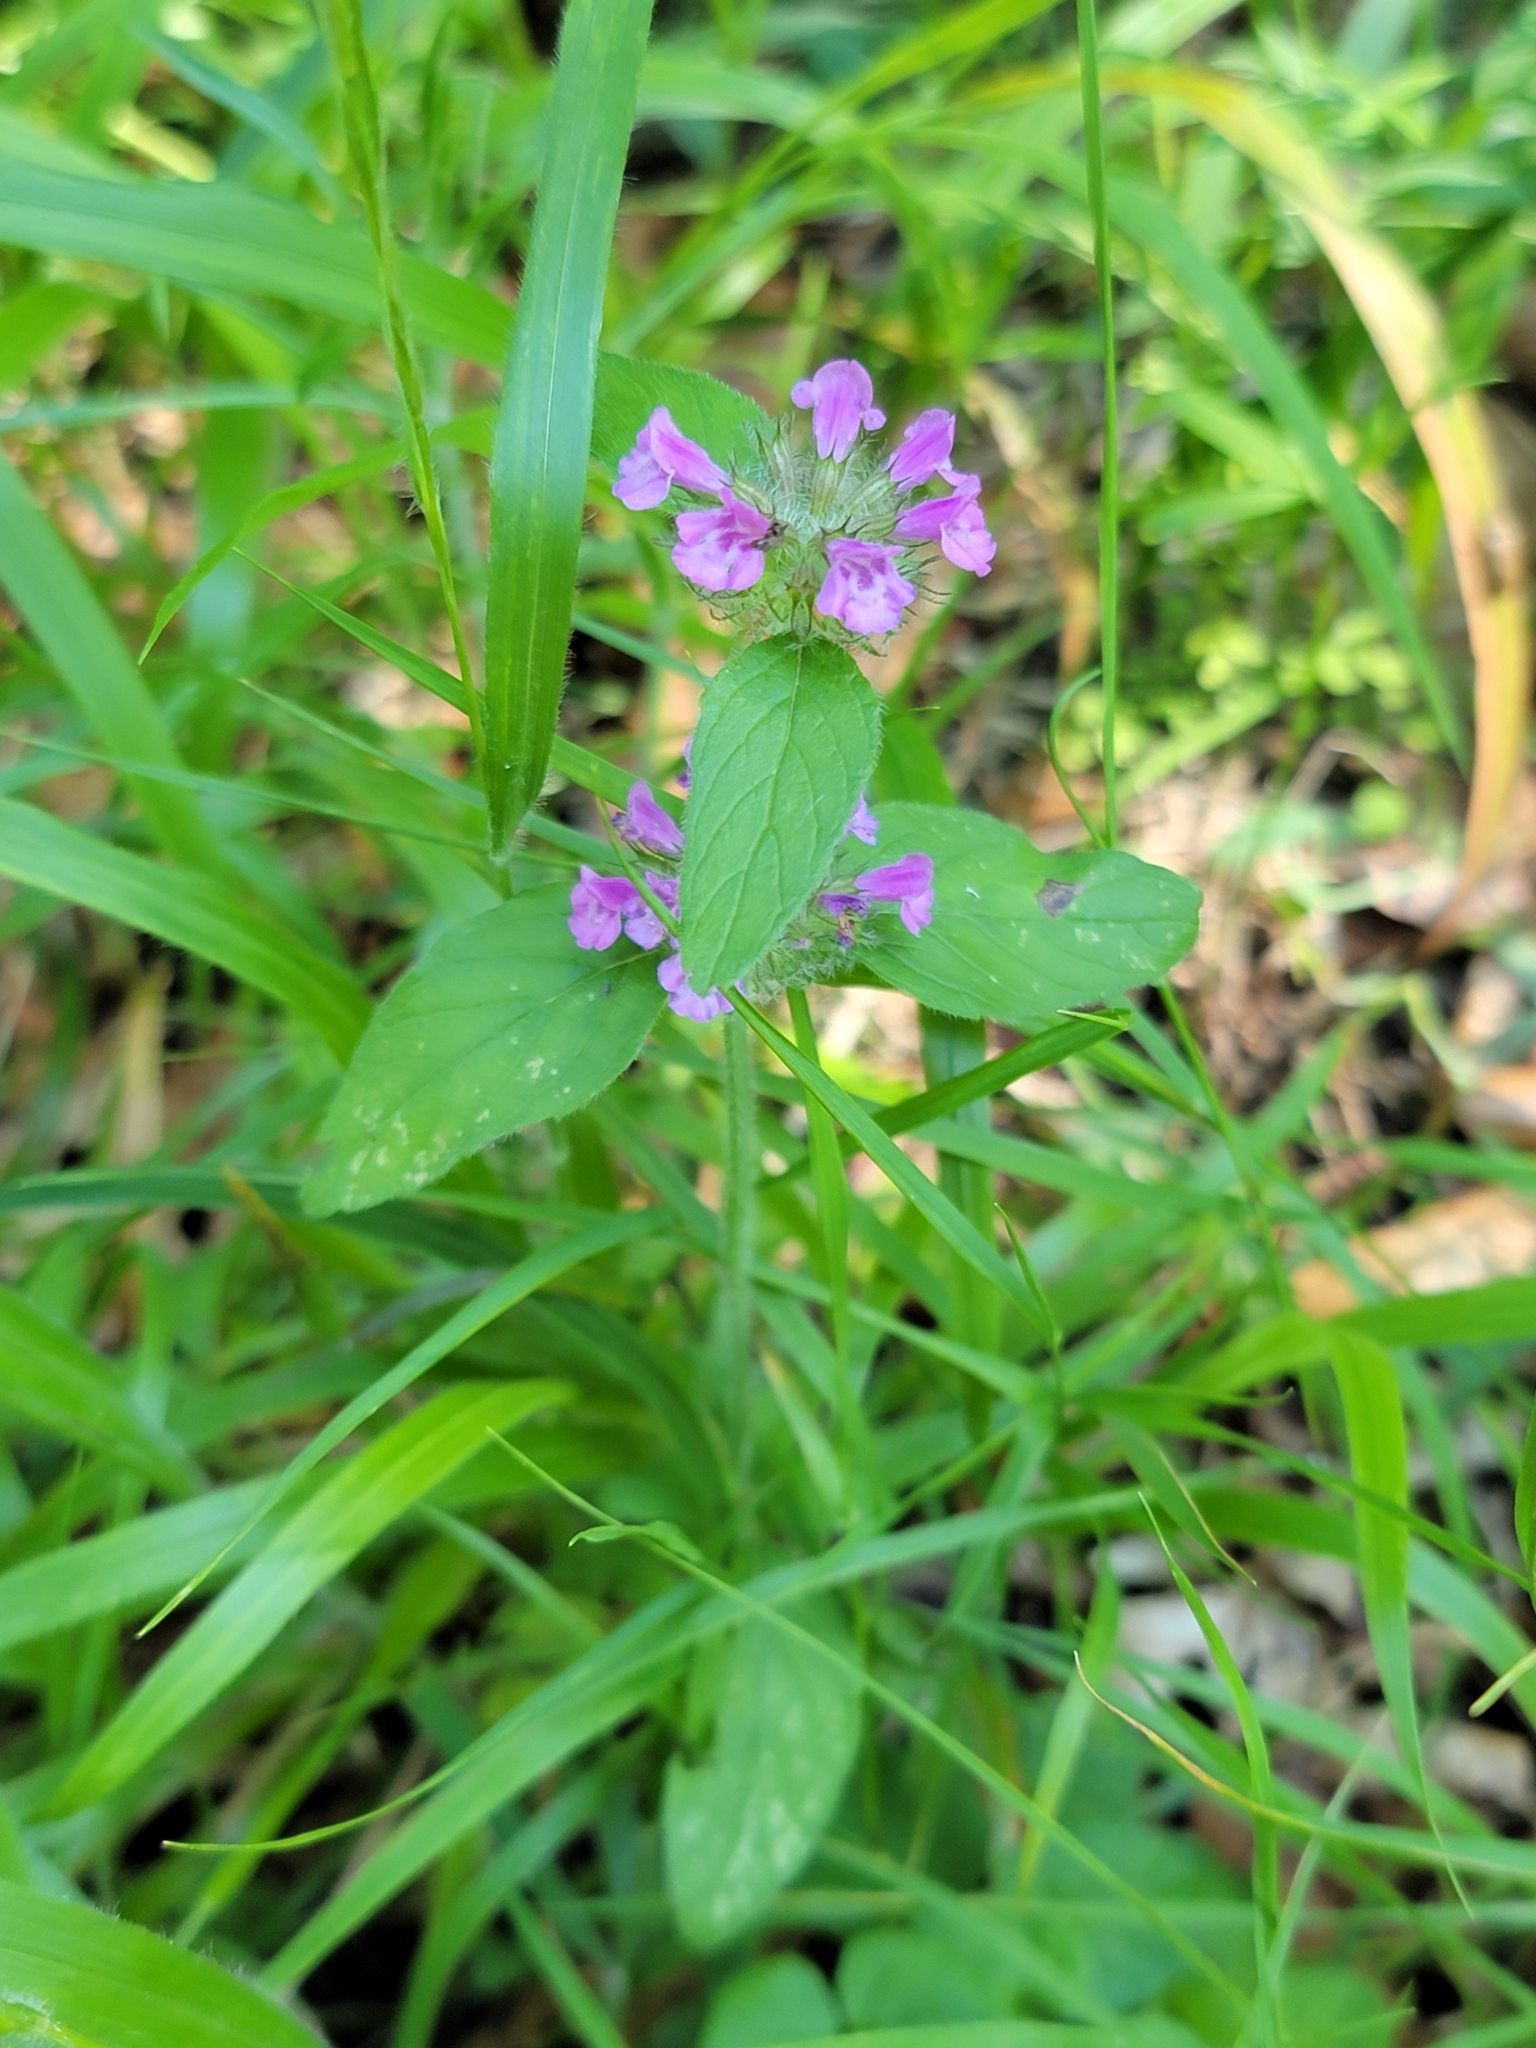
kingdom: Plantae
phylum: Tracheophyta
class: Magnoliopsida
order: Lamiales
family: Lamiaceae
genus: Clinopodium
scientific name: Clinopodium vulgare
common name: Wild basil
